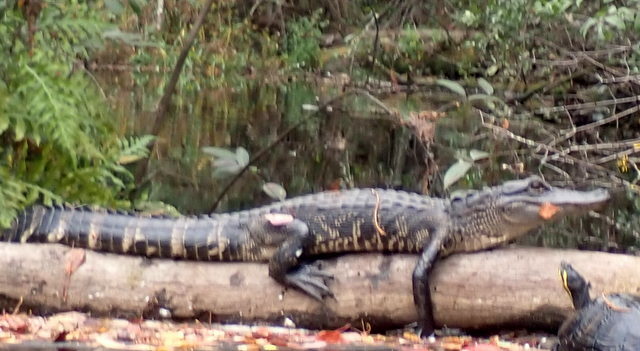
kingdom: Animalia
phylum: Chordata
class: Crocodylia
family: Alligatoridae
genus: Alligator
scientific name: Alligator mississippiensis
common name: American alligator
